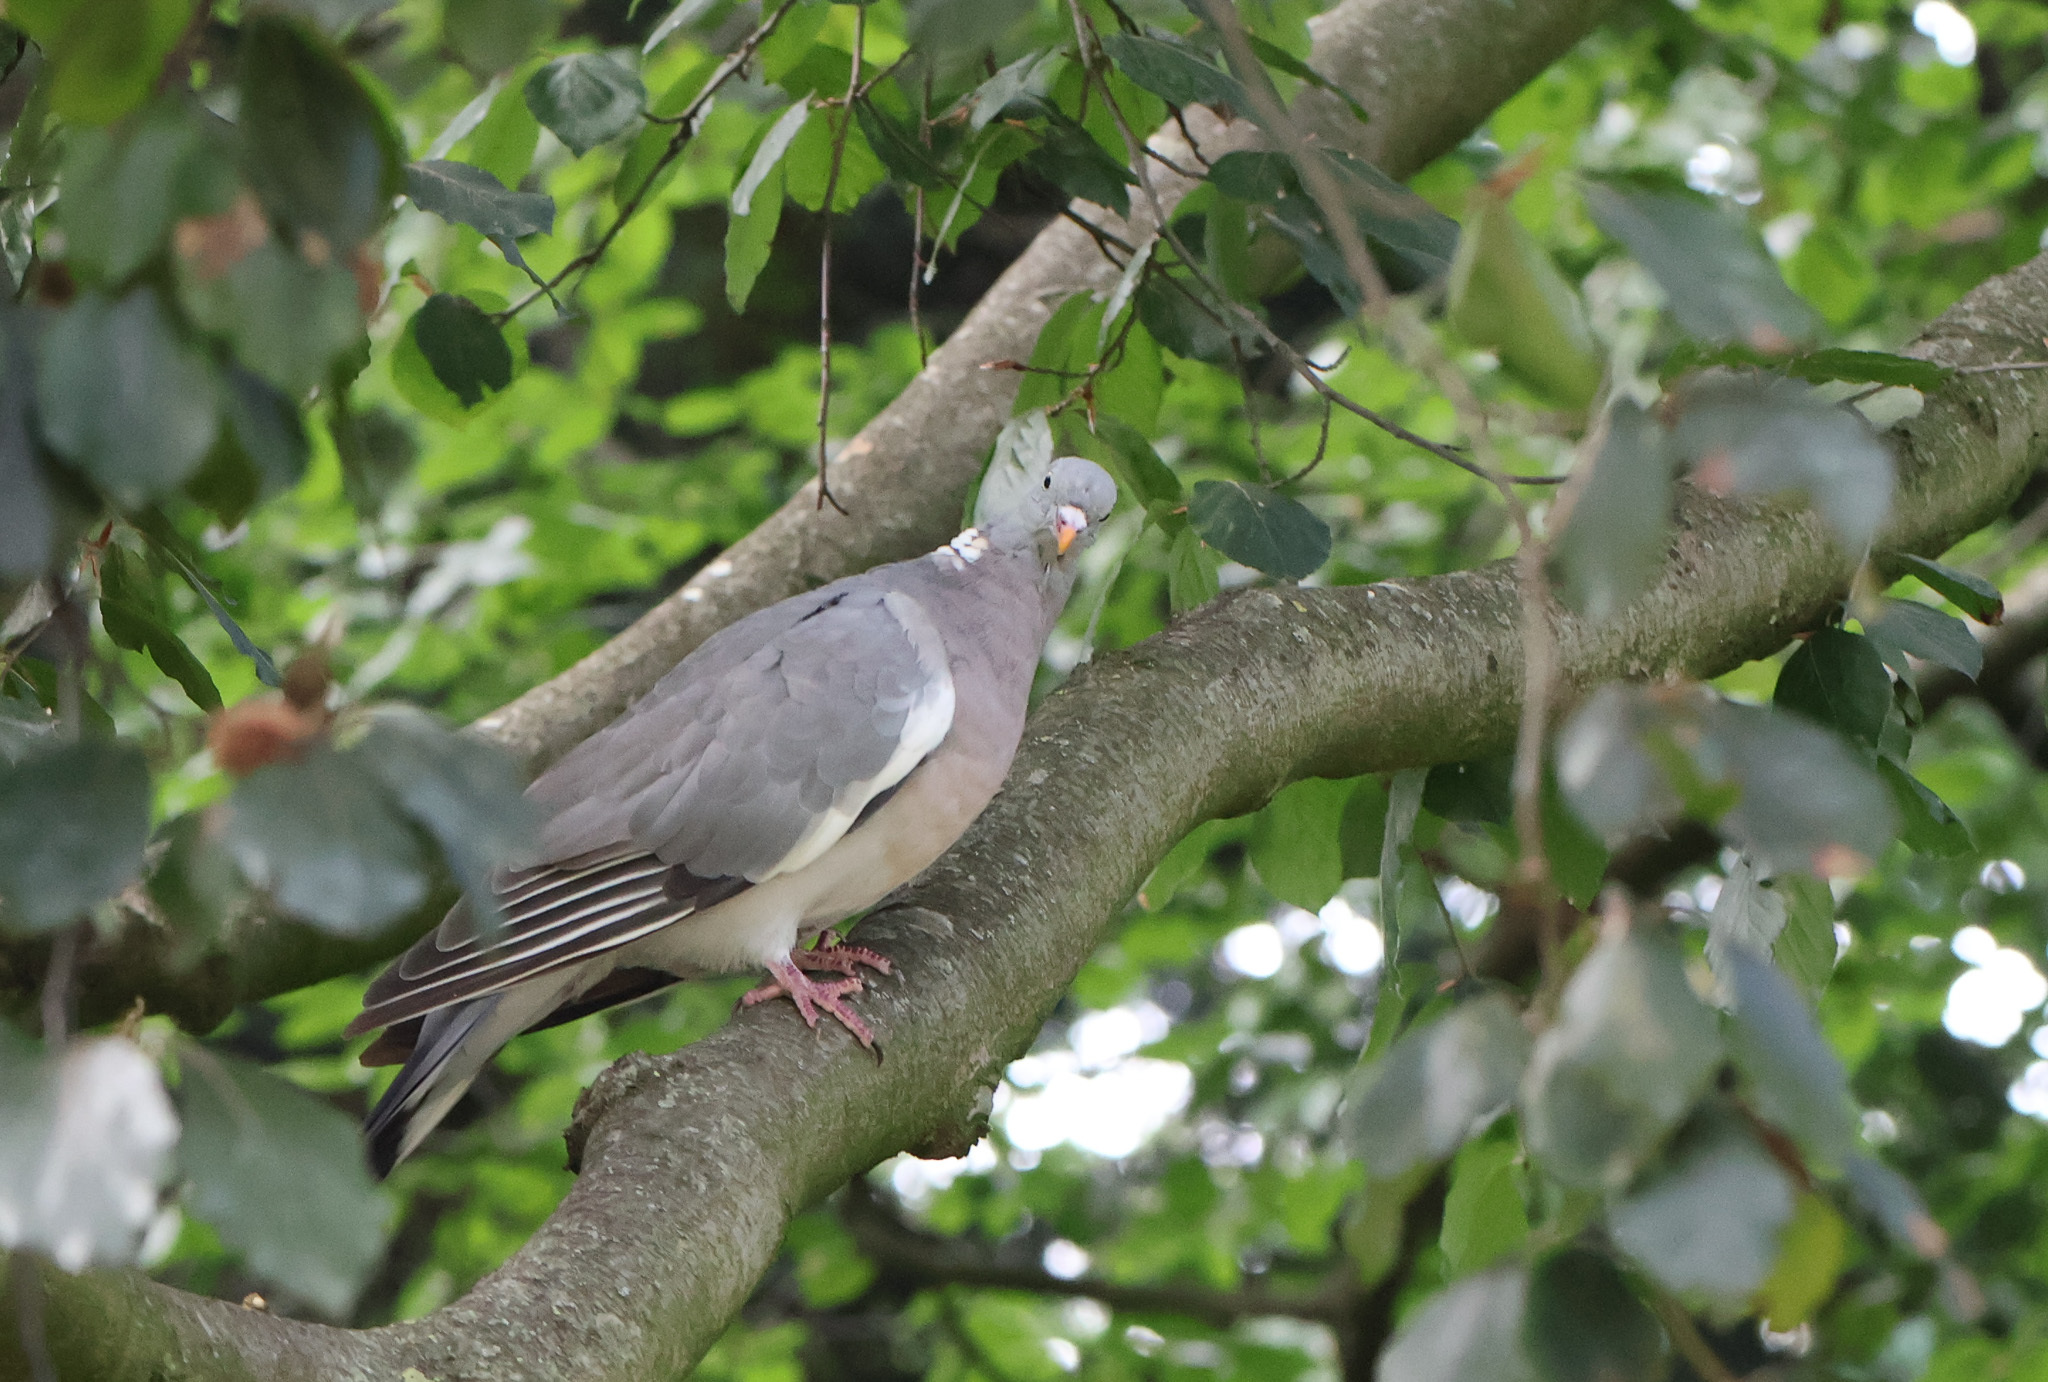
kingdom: Animalia
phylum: Chordata
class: Aves
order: Columbiformes
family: Columbidae
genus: Columba
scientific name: Columba palumbus
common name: Common wood pigeon
